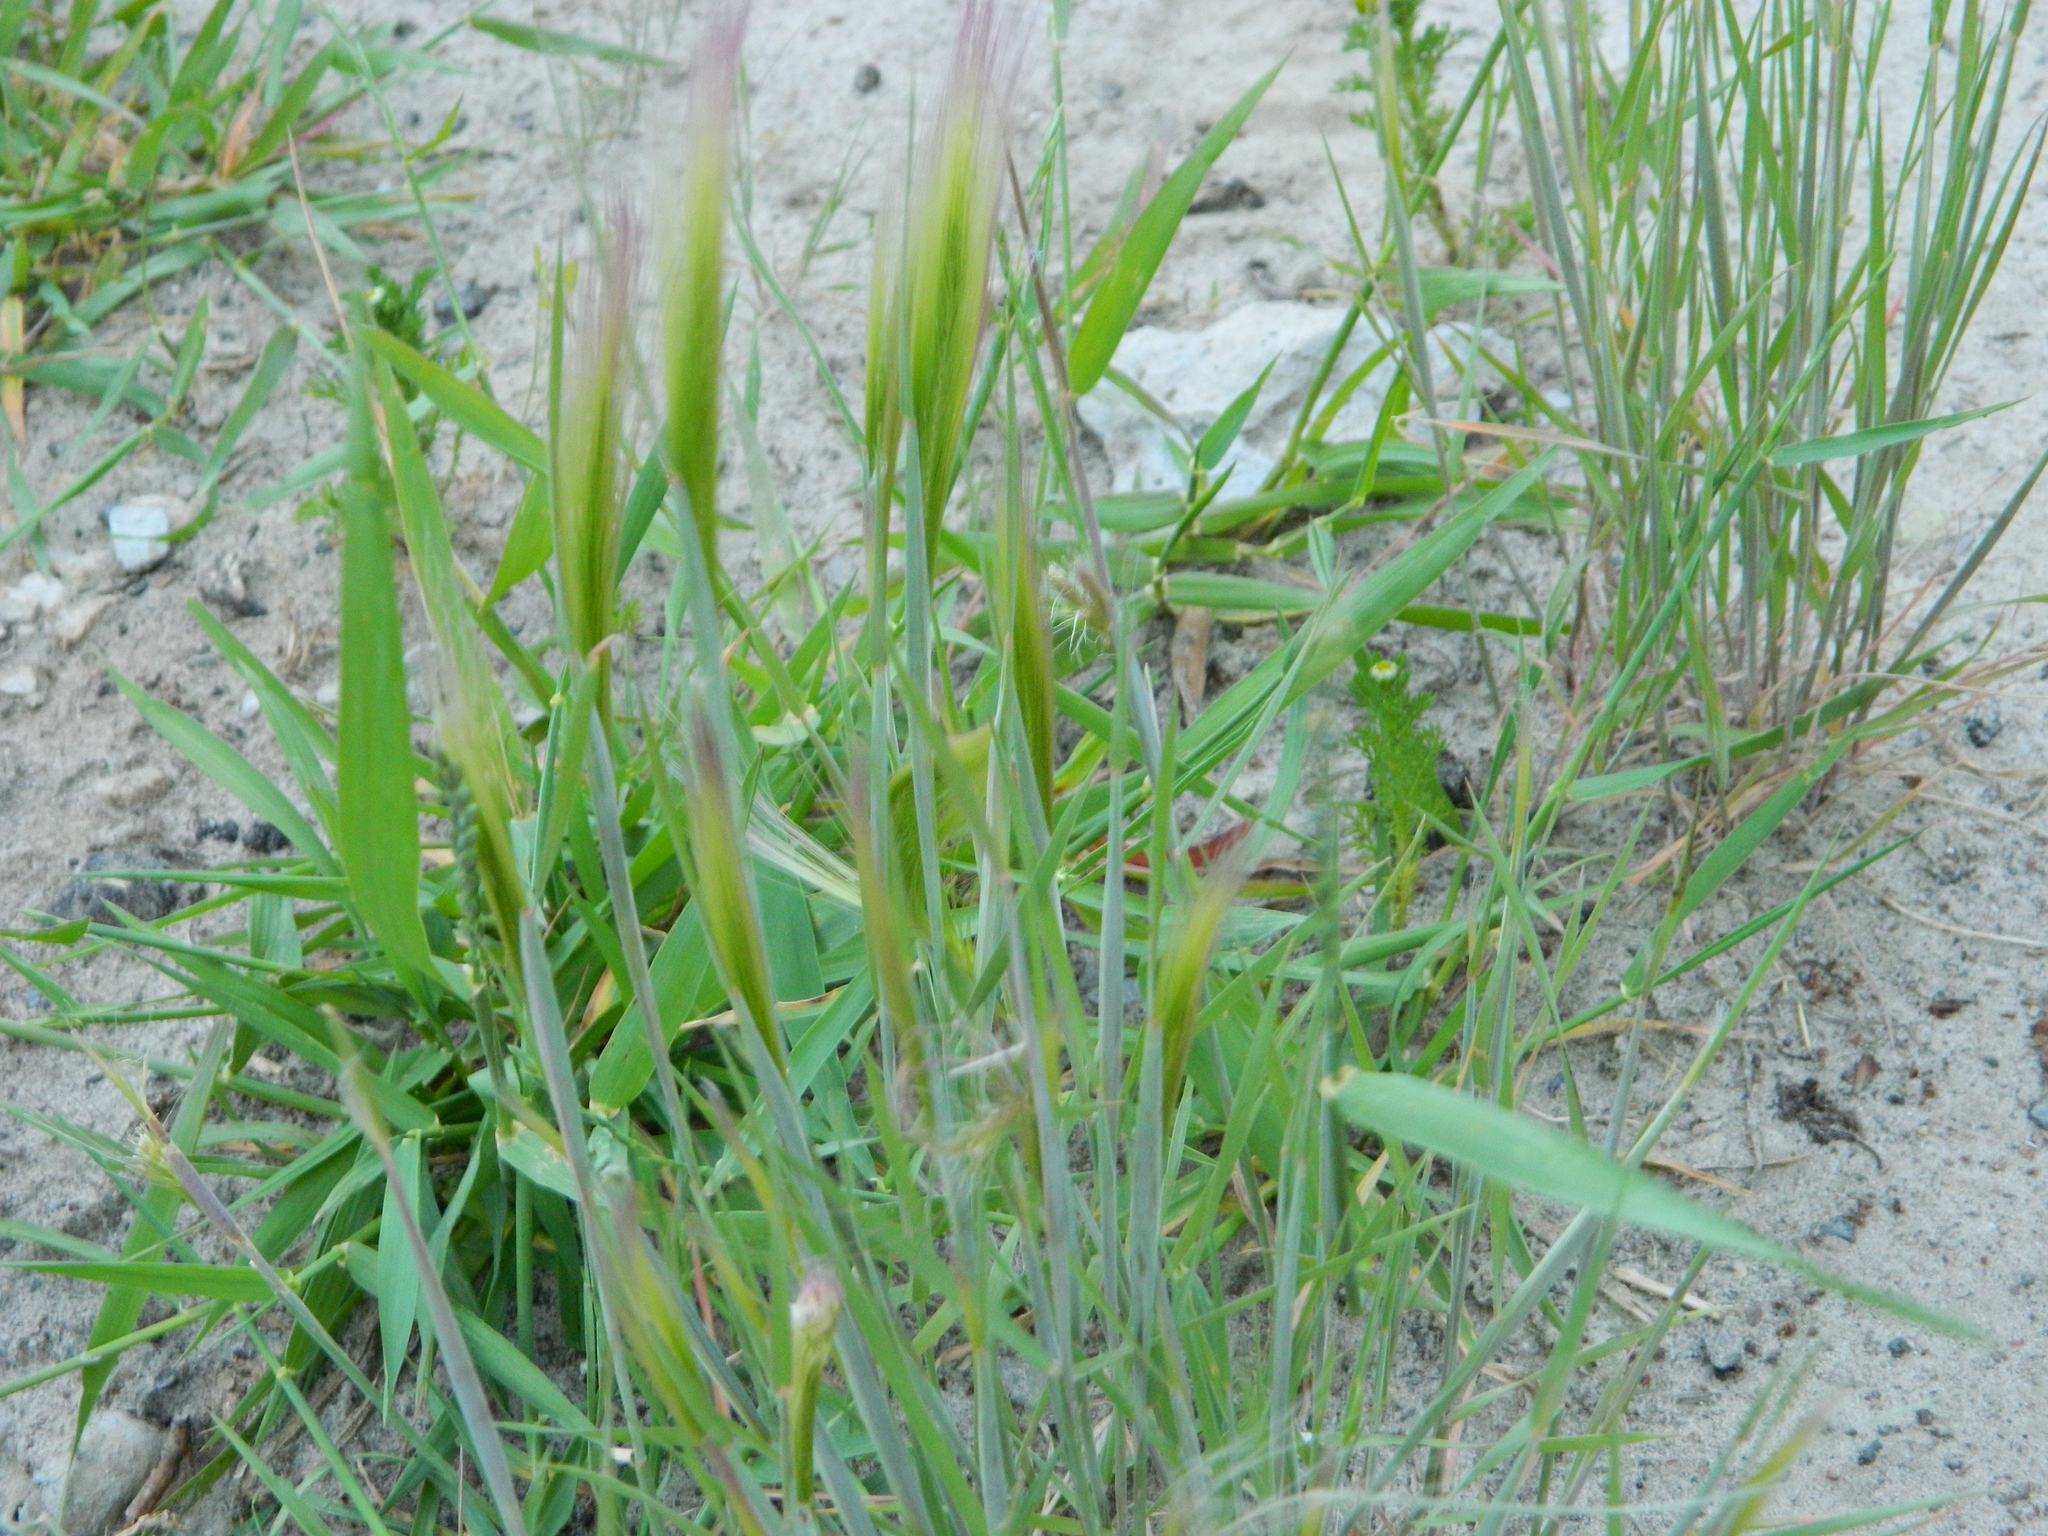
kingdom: Plantae
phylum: Tracheophyta
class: Liliopsida
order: Poales
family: Poaceae
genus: Hordeum
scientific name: Hordeum jubatum
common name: Foxtail barley
